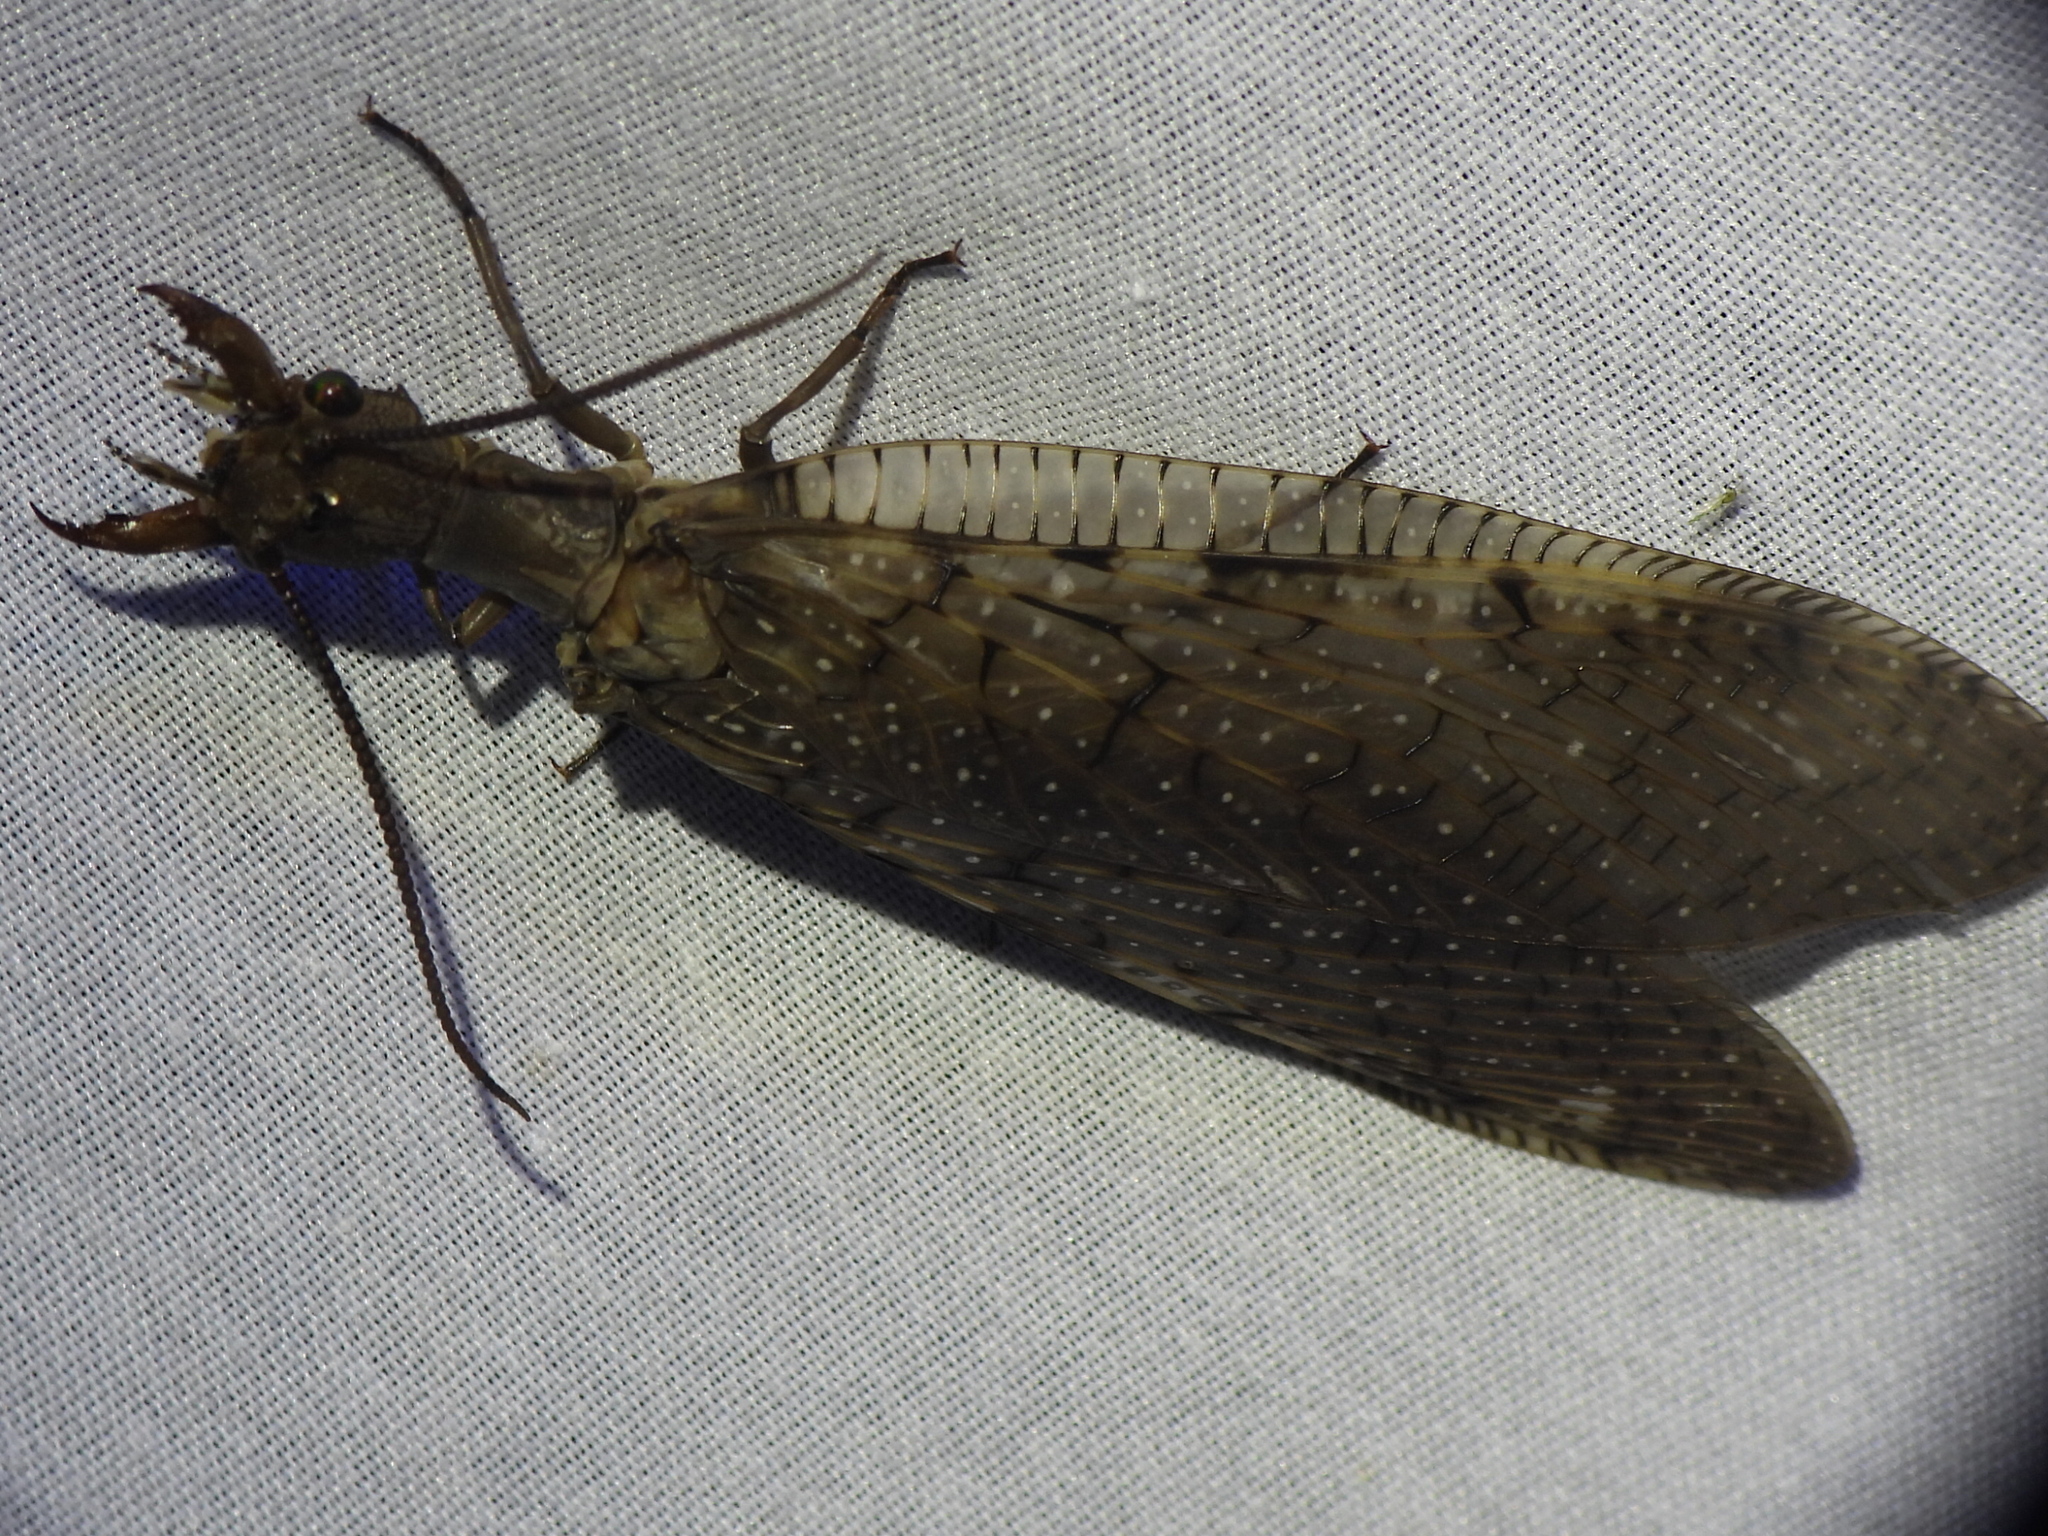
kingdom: Animalia
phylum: Arthropoda
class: Insecta
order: Megaloptera
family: Corydalidae
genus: Corydalus
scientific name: Corydalus cornutus
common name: Dobsonfly
